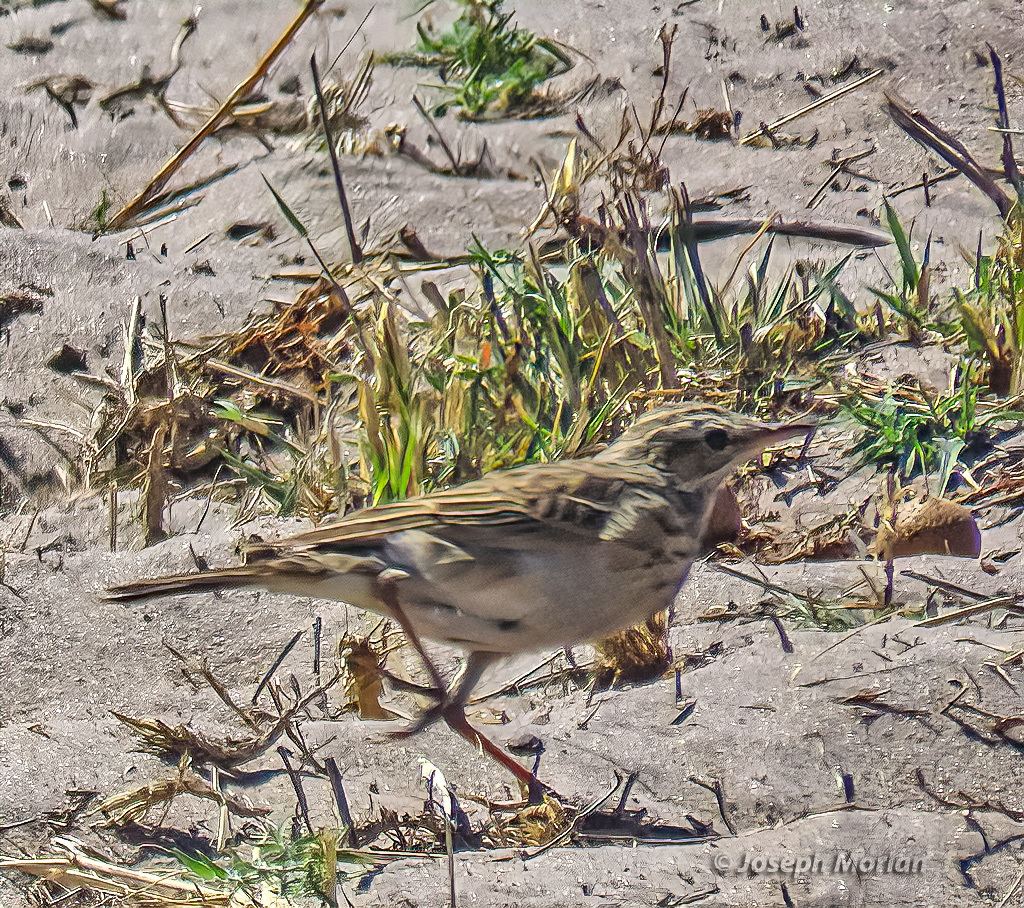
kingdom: Animalia
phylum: Chordata
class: Aves
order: Passeriformes
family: Motacillidae
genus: Anthus
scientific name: Anthus cinnamomeus
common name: African pipit
